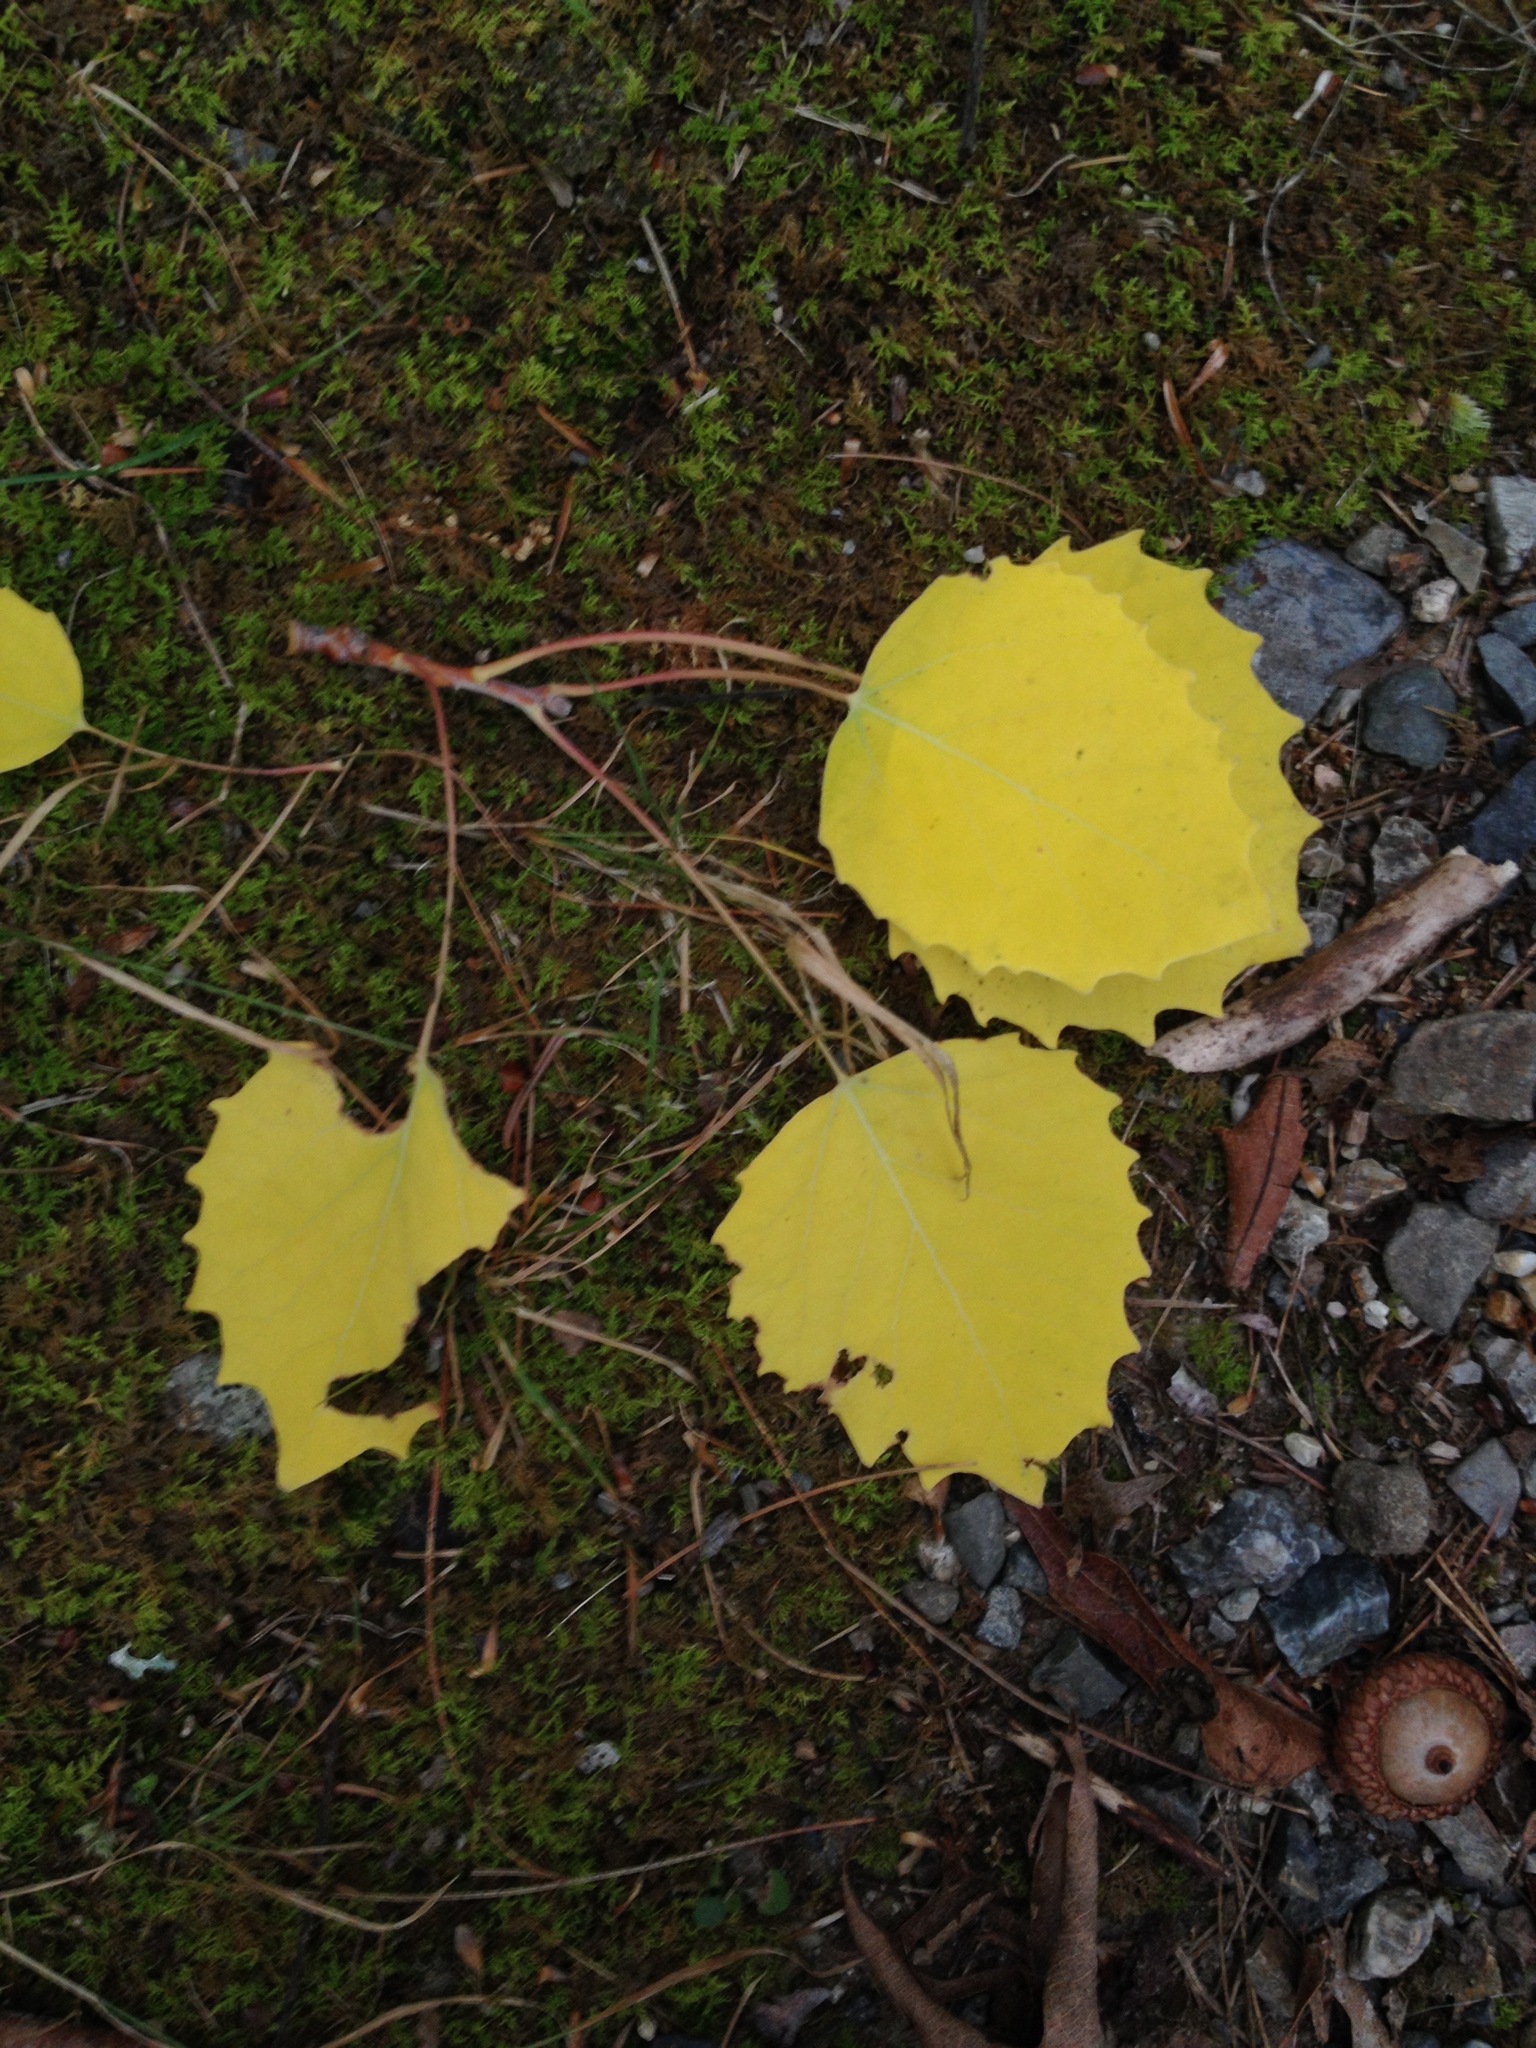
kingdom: Plantae
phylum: Tracheophyta
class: Magnoliopsida
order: Malpighiales
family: Salicaceae
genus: Populus
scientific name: Populus grandidentata
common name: Bigtooth aspen
